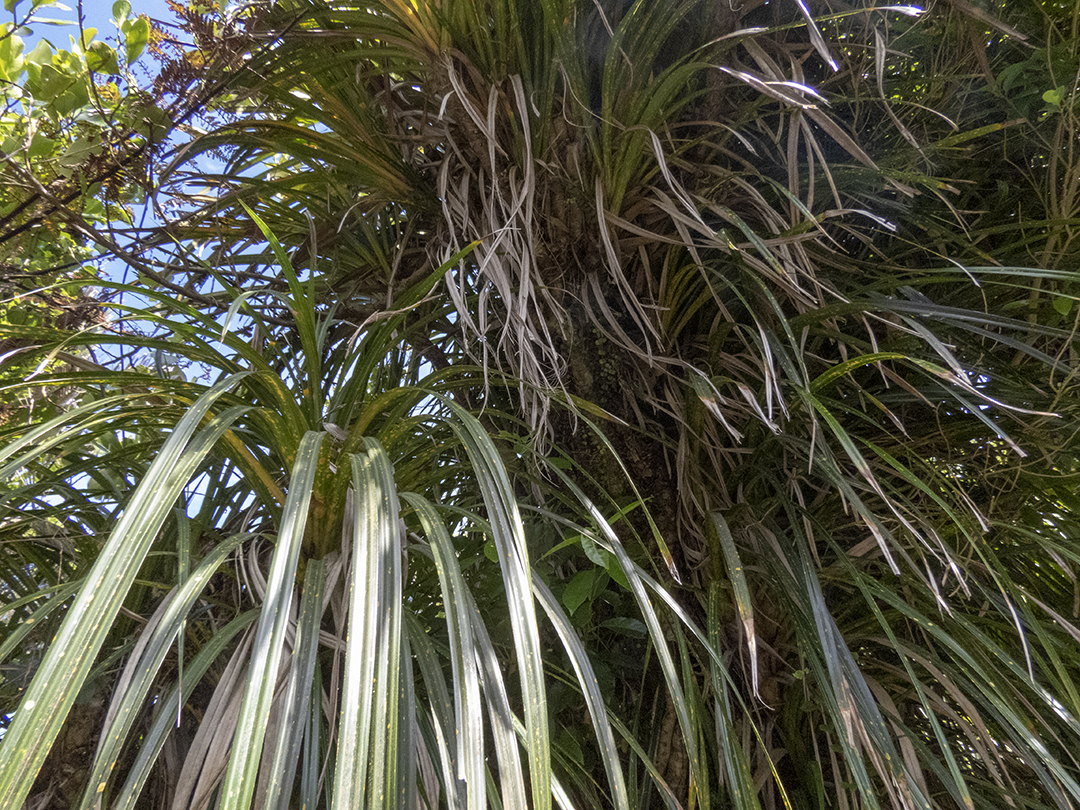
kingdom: Plantae
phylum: Tracheophyta
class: Liliopsida
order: Pandanales
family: Pandanaceae
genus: Freycinetia
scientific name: Freycinetia banksii
